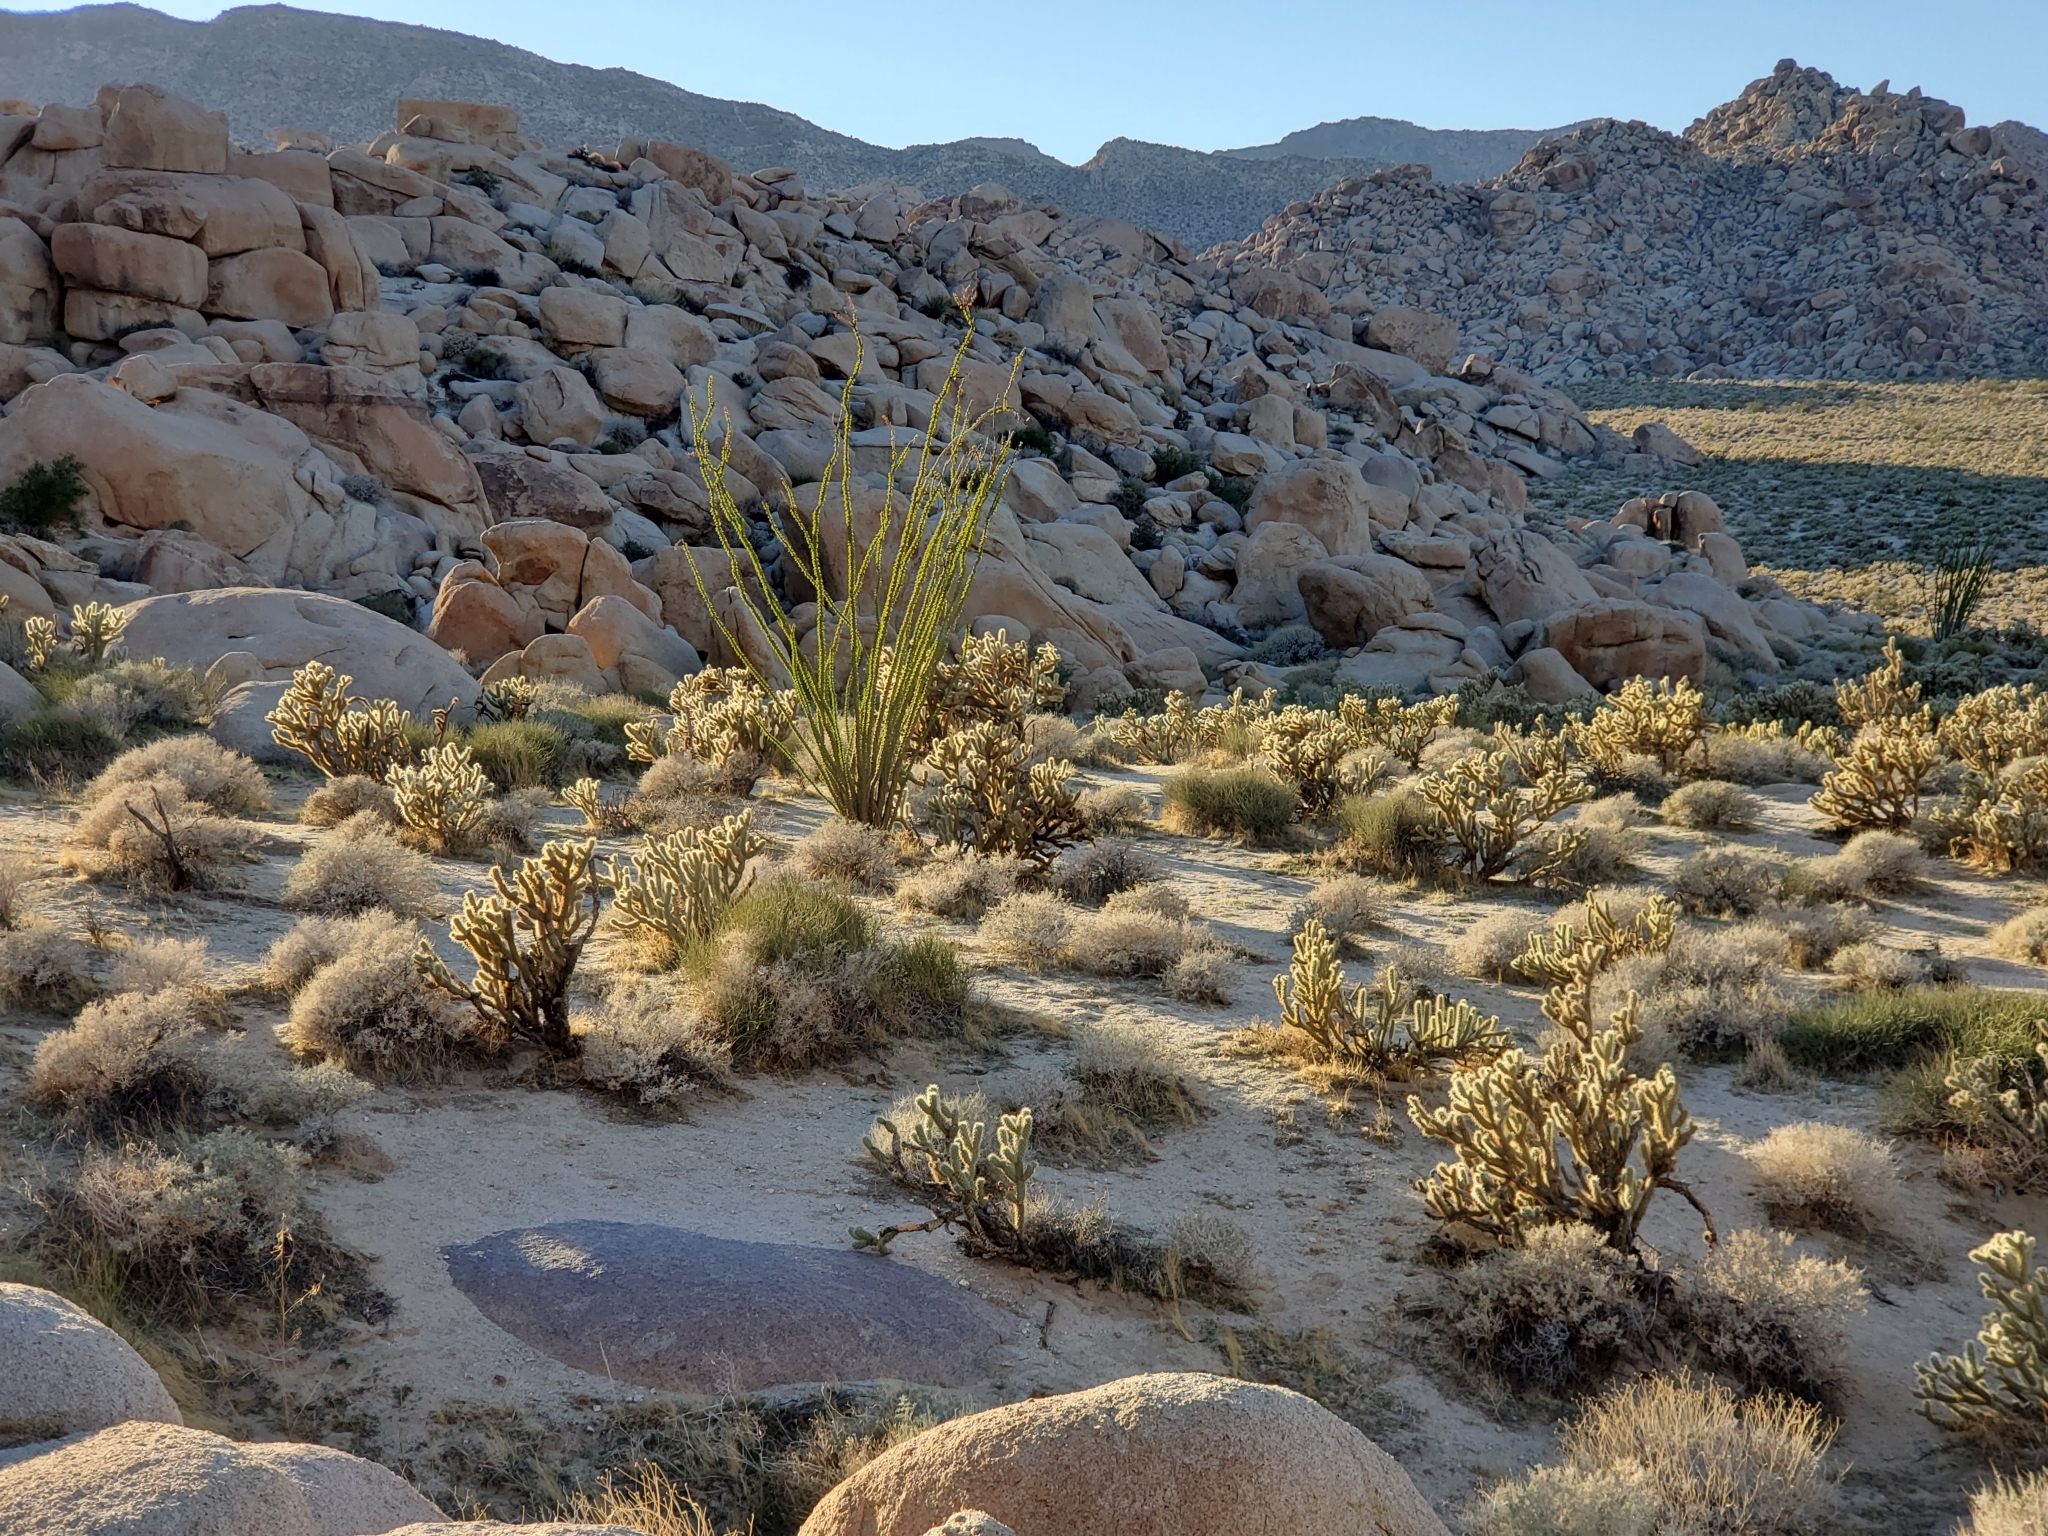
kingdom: Plantae
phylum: Tracheophyta
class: Magnoliopsida
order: Ericales
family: Fouquieriaceae
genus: Fouquieria
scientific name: Fouquieria splendens
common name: Vine-cactus
